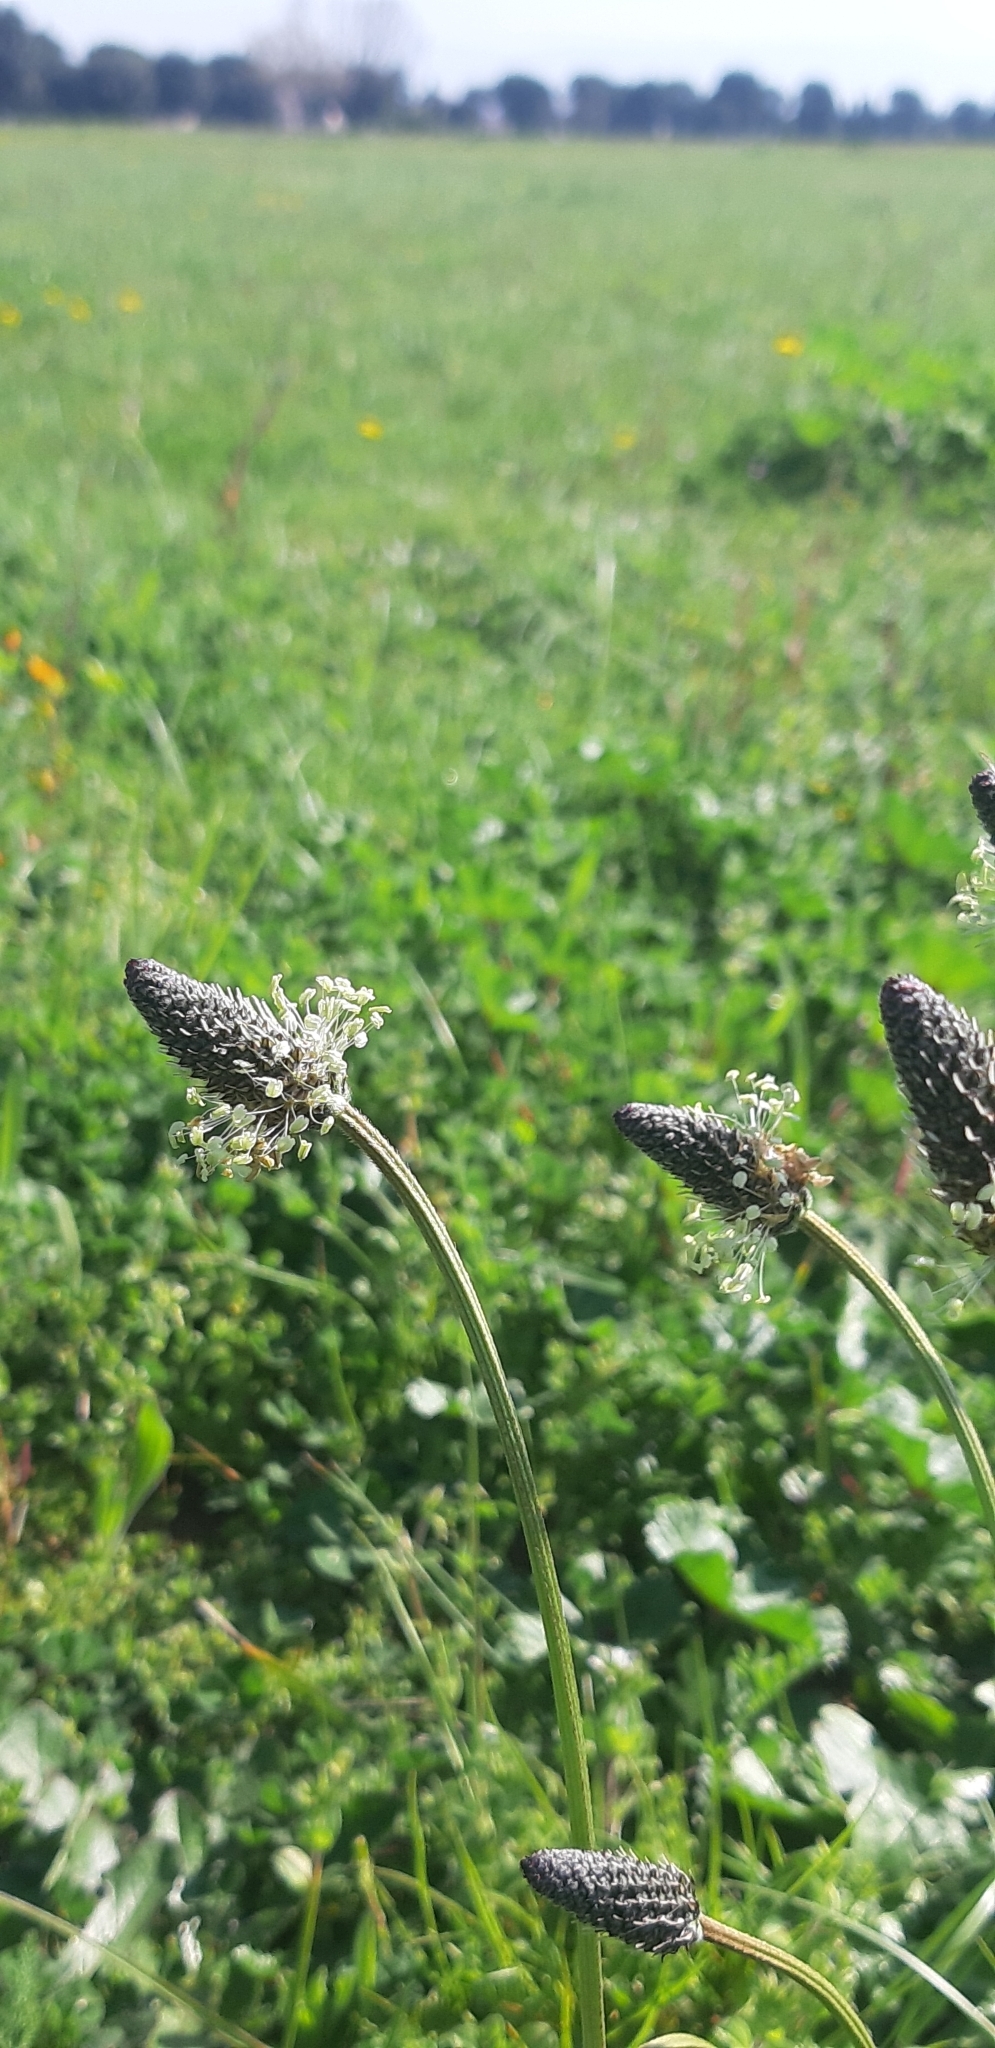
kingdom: Plantae
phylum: Tracheophyta
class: Magnoliopsida
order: Lamiales
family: Plantaginaceae
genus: Plantago
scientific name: Plantago lanceolata
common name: Ribwort plantain
